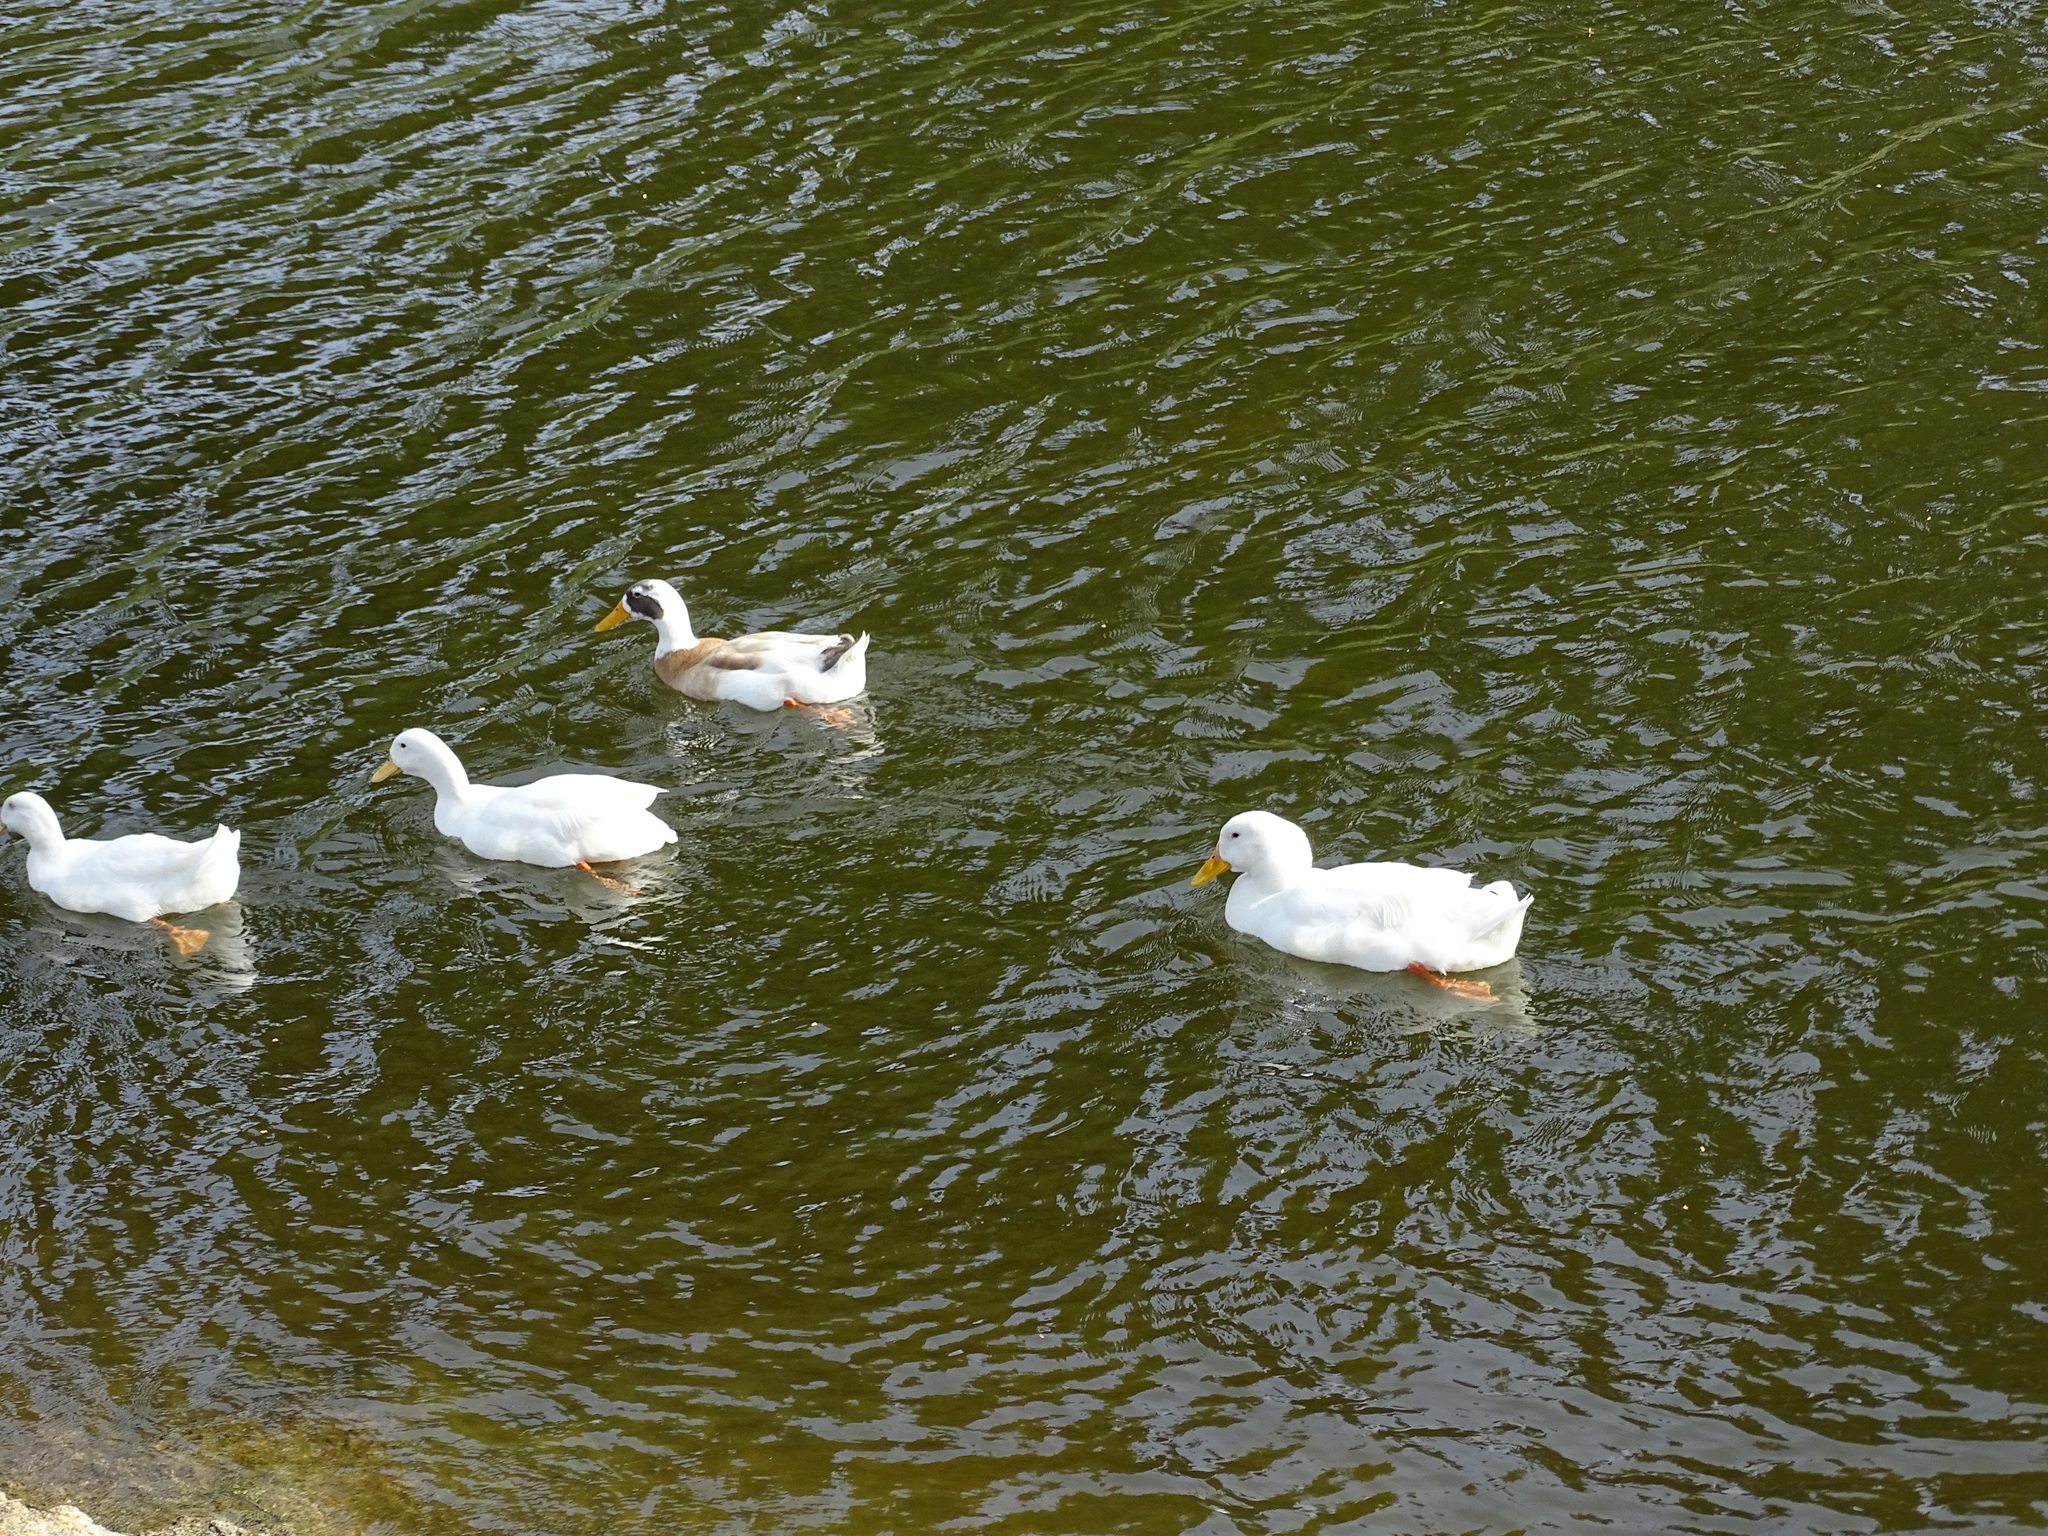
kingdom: Animalia
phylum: Chordata
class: Aves
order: Anseriformes
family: Anatidae
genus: Anas
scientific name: Anas platyrhynchos
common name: Mallard
